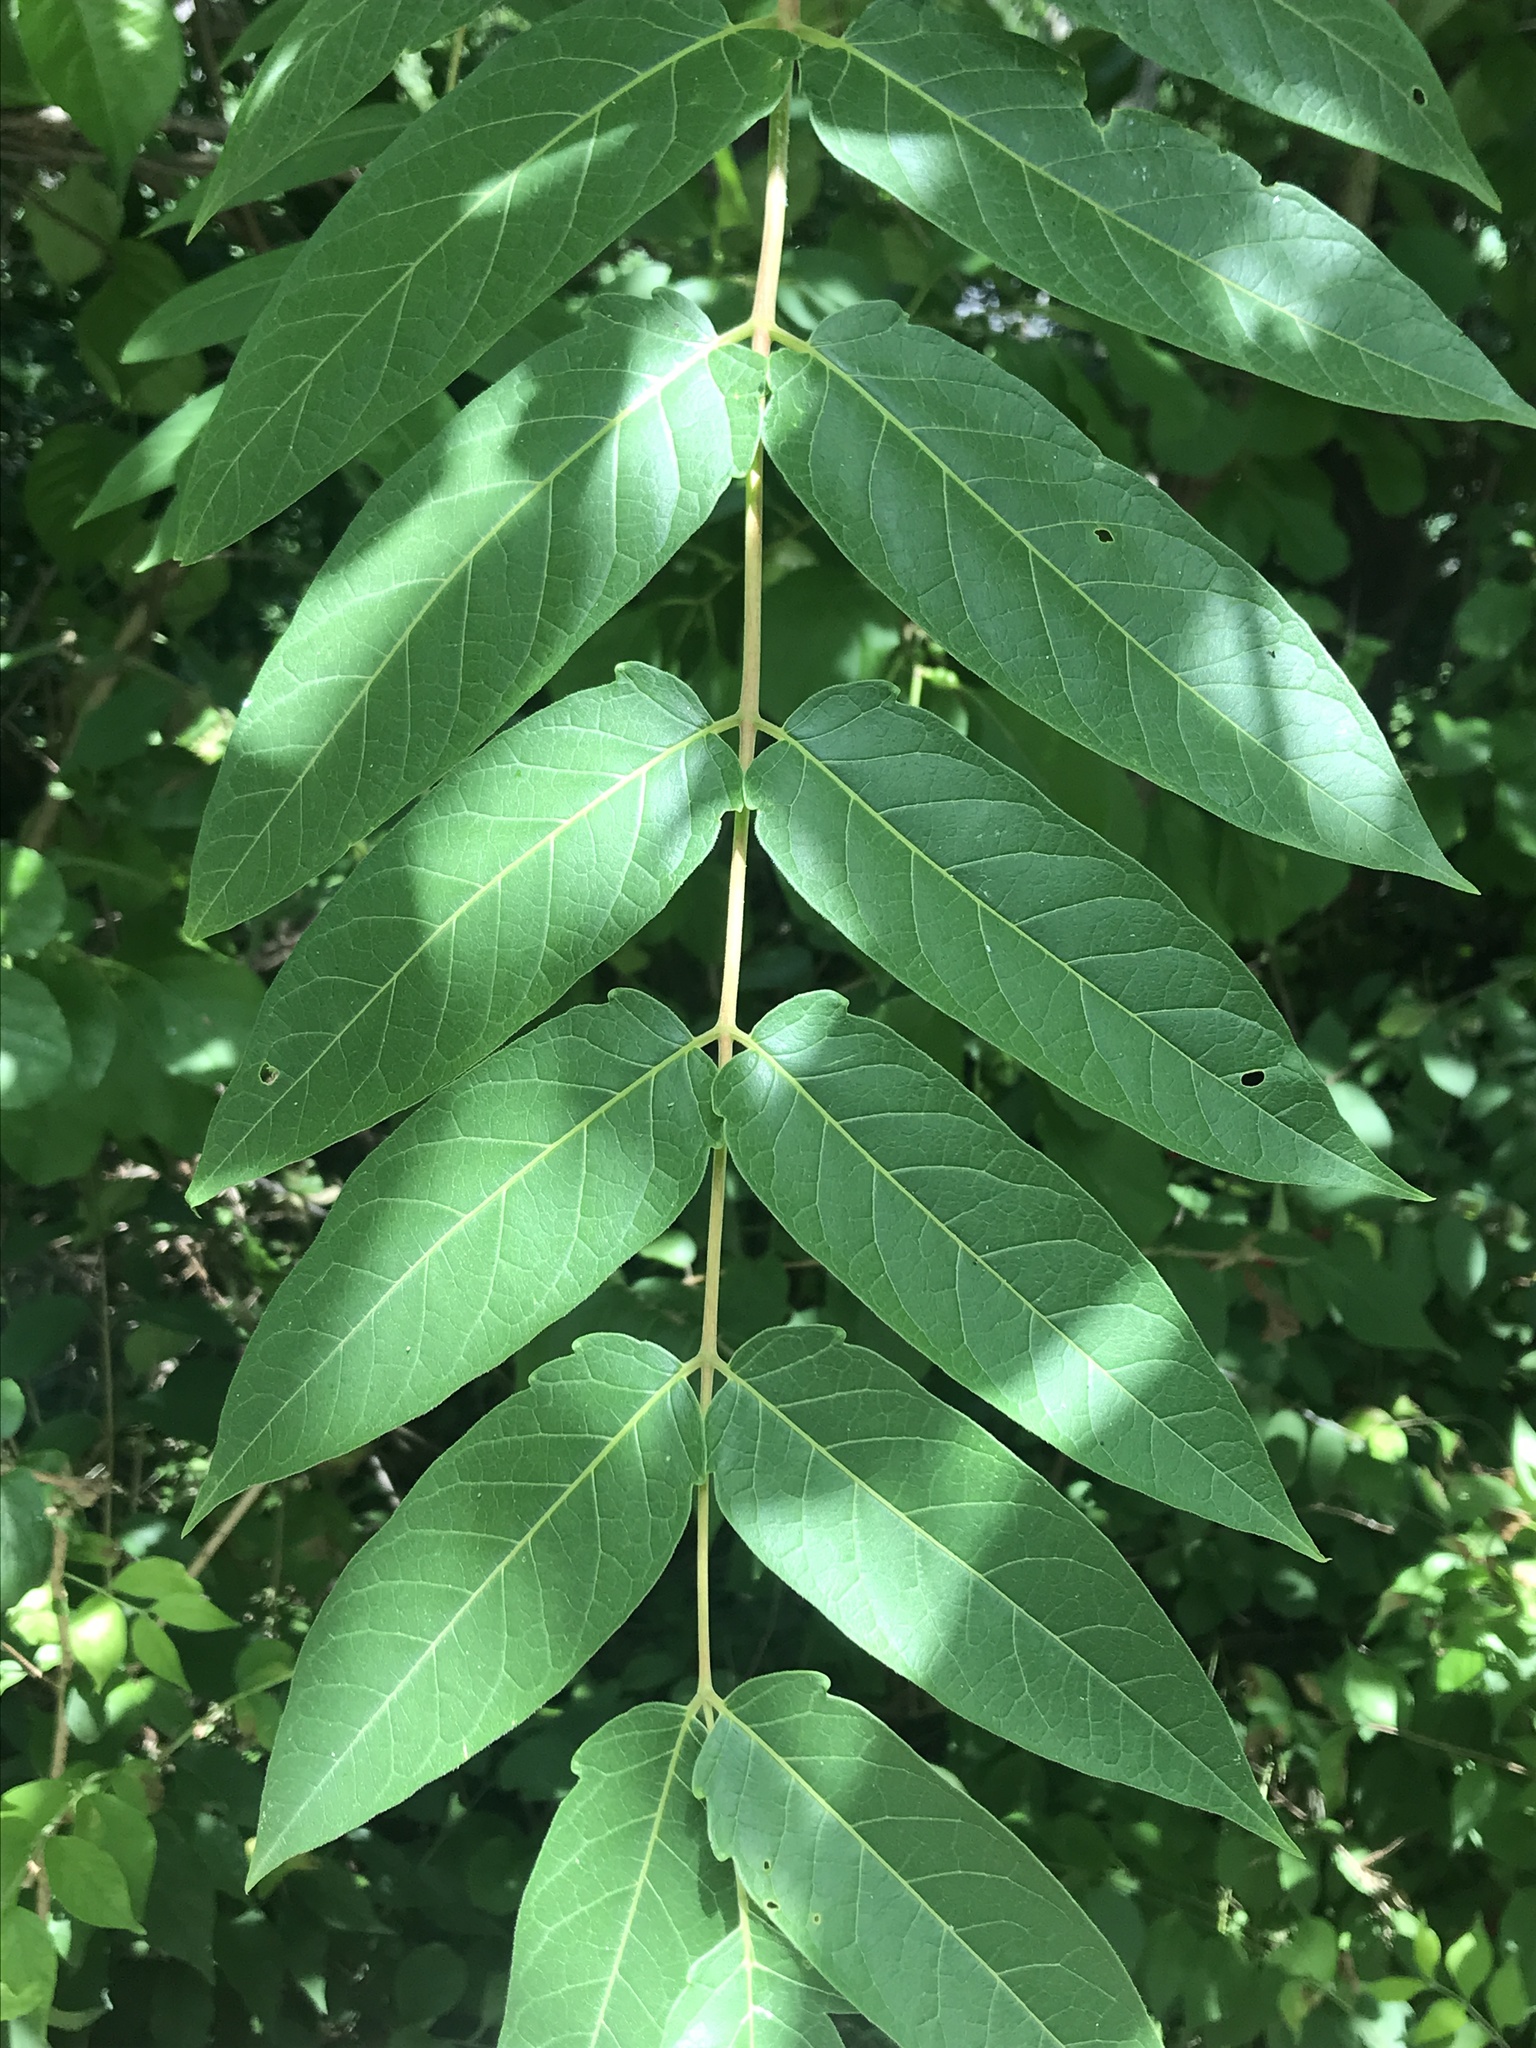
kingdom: Plantae
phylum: Tracheophyta
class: Magnoliopsida
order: Sapindales
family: Simaroubaceae
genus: Ailanthus
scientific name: Ailanthus altissima
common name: Tree-of-heaven
